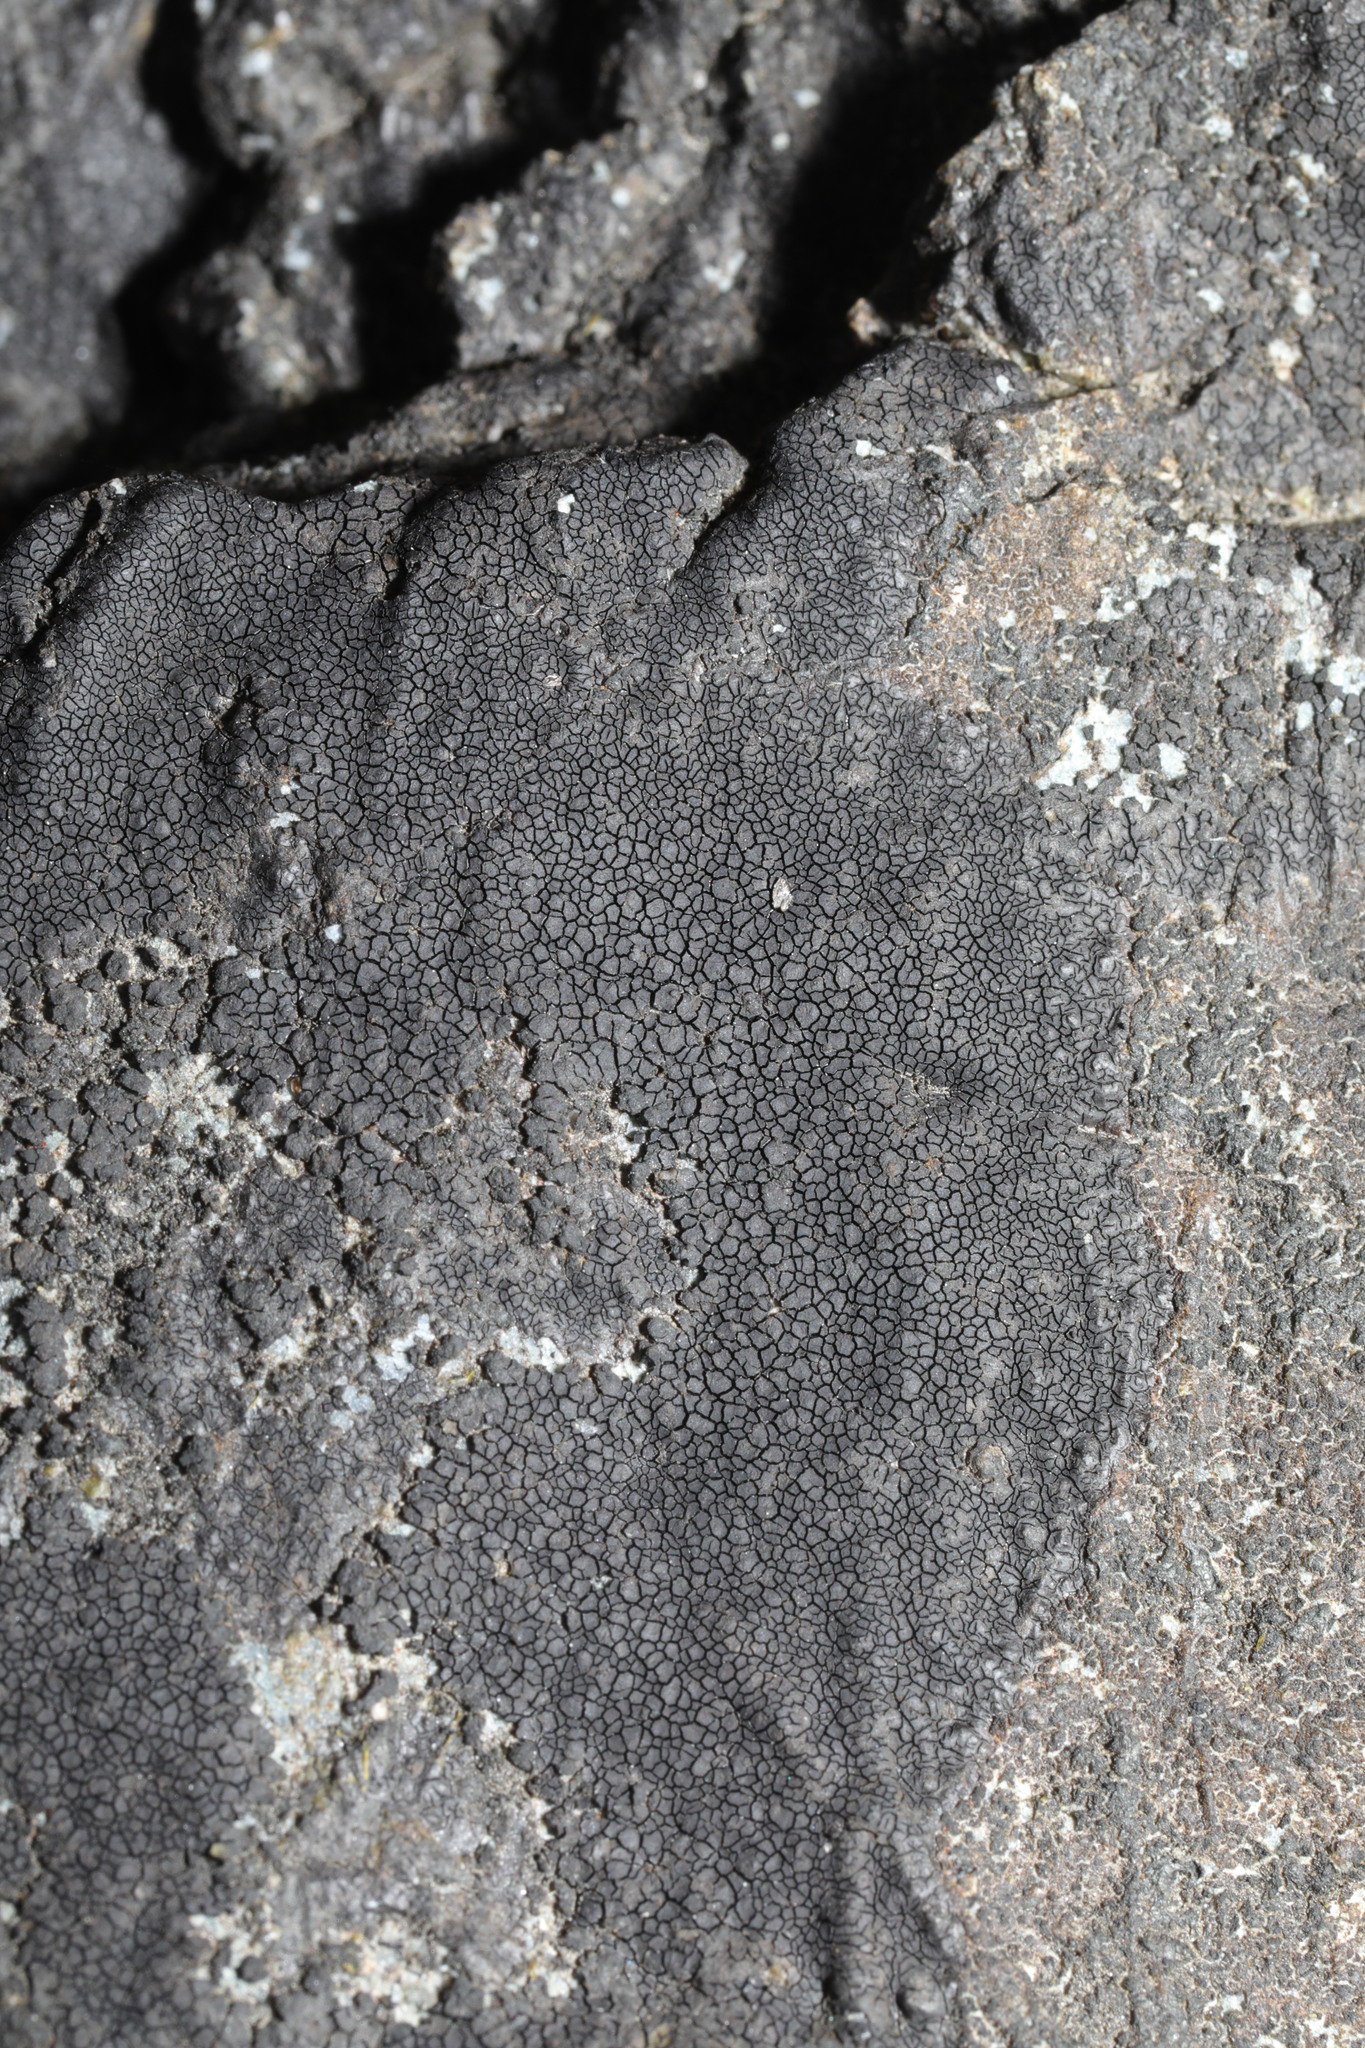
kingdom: Fungi
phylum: Ascomycota
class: Eurotiomycetes
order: Verrucariales
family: Verrucariaceae
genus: Hydropunctaria
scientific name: Hydropunctaria maura
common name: Tar lichen
